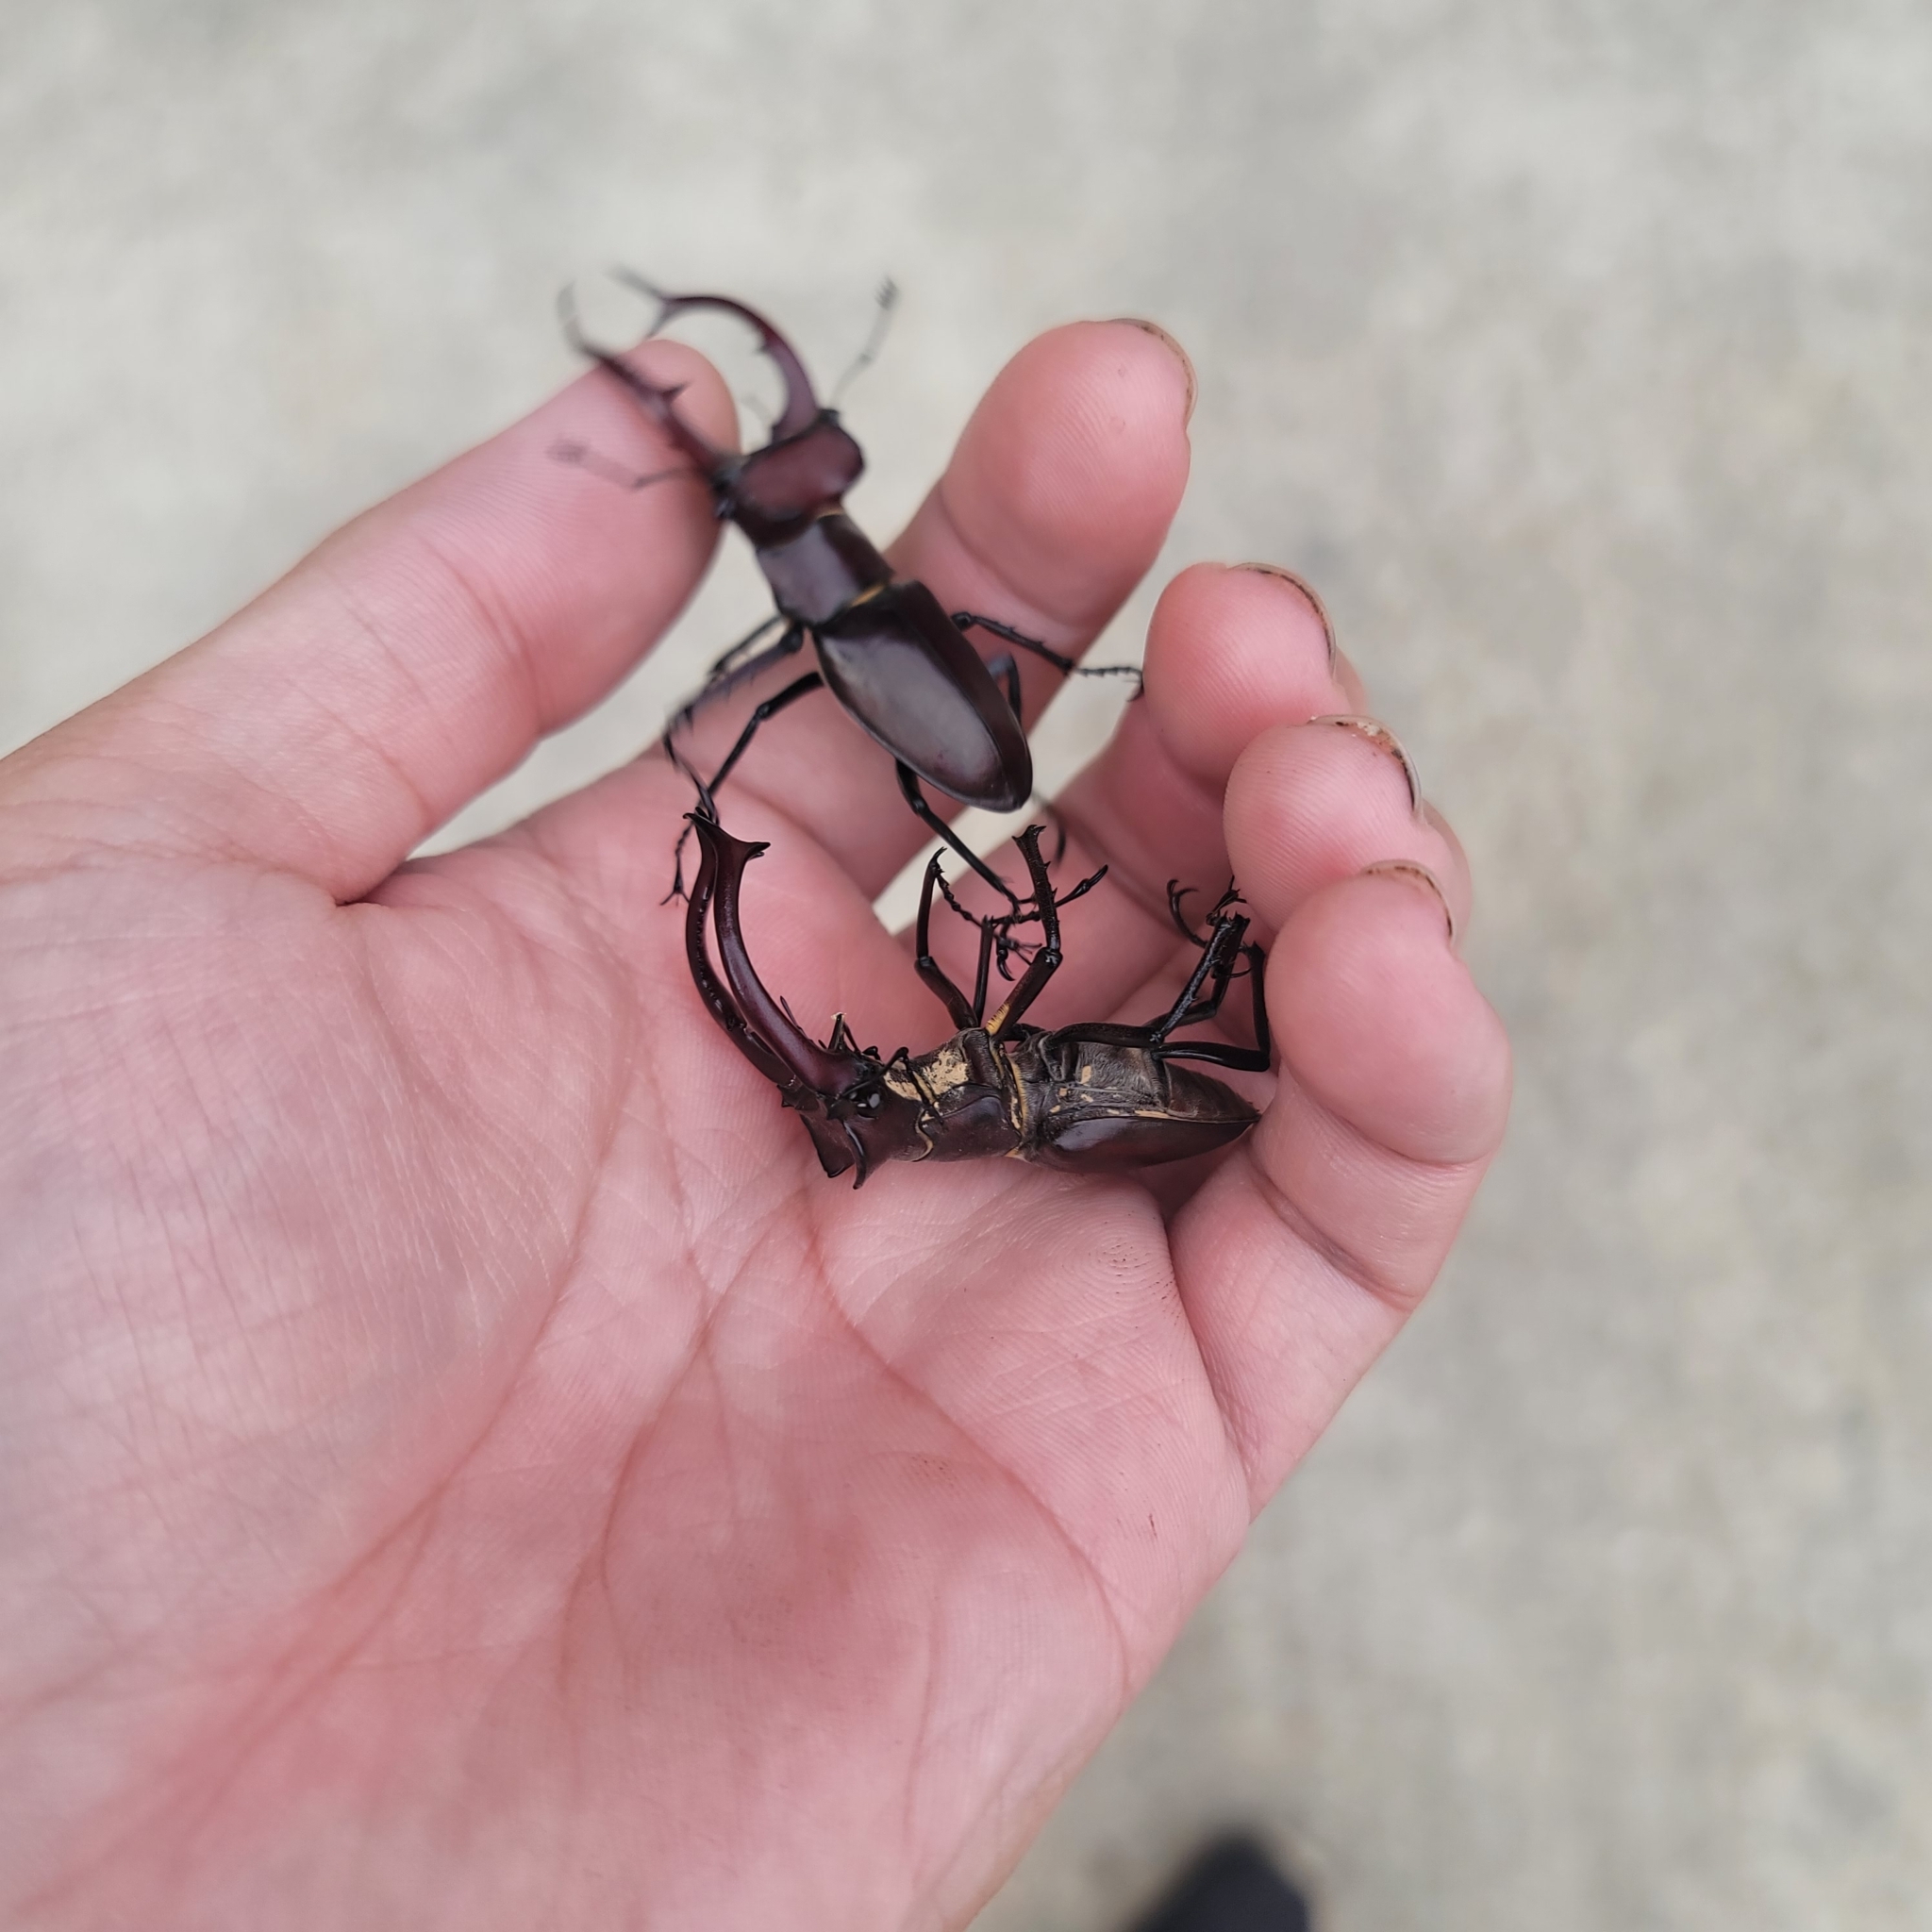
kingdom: Animalia
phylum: Arthropoda
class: Insecta
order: Coleoptera
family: Lucanidae
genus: Lucanus
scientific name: Lucanus elaphus
